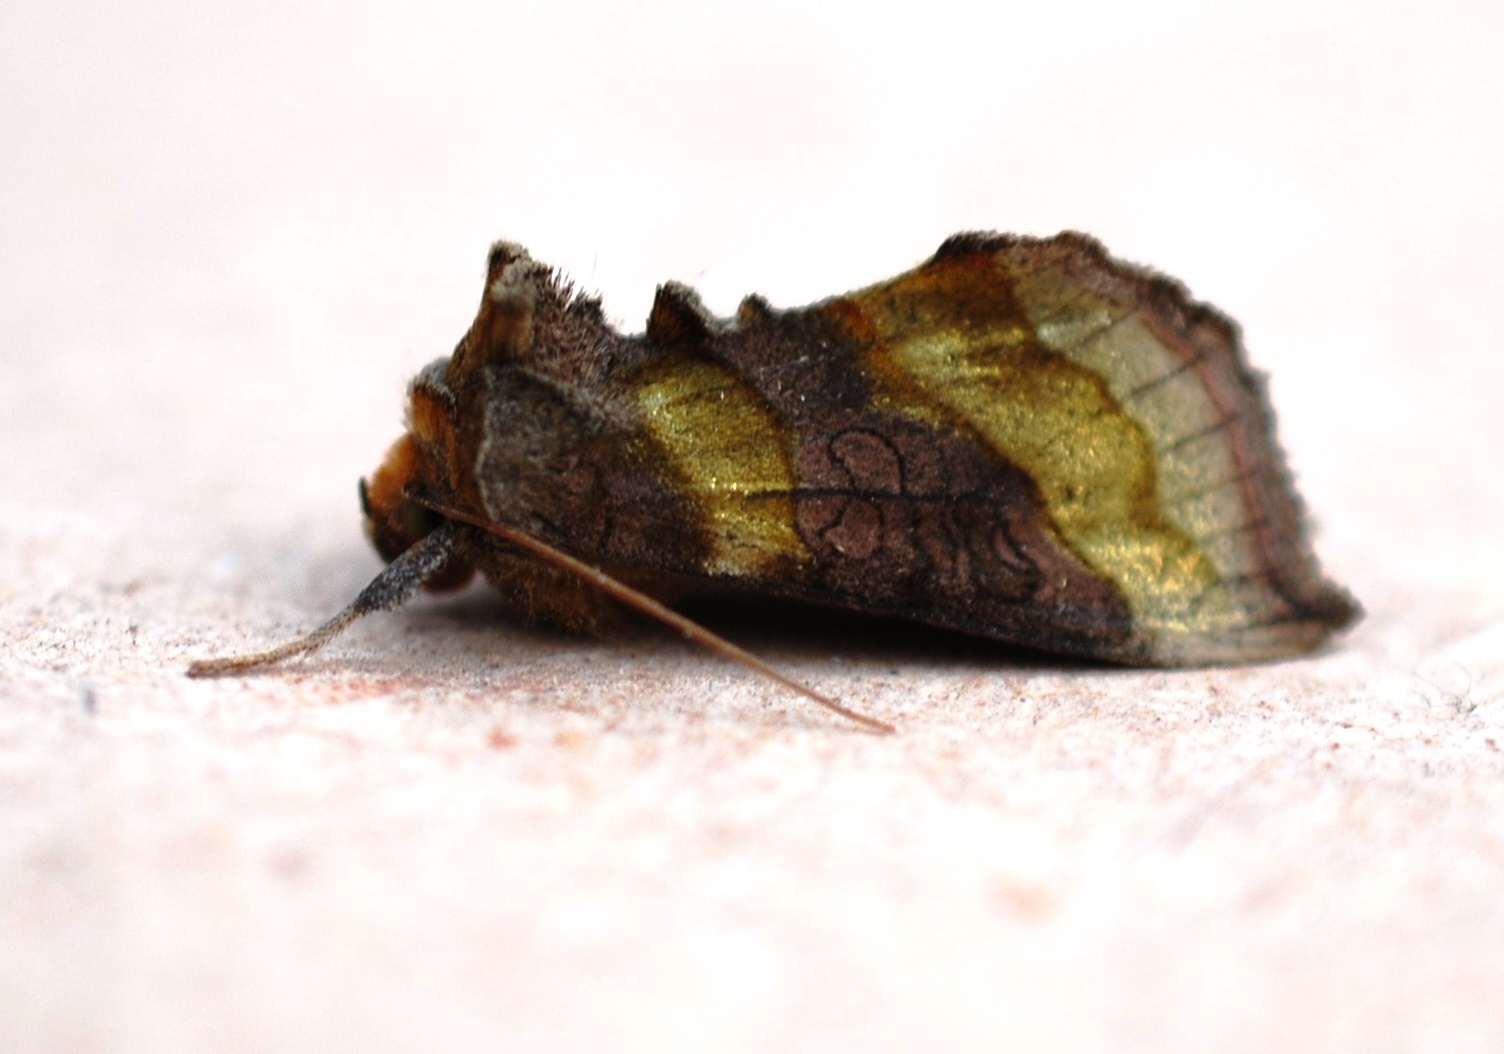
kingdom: Animalia
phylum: Arthropoda
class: Insecta
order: Lepidoptera
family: Noctuidae
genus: Diachrysia
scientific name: Diachrysia chrysitis
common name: Burnished brass
